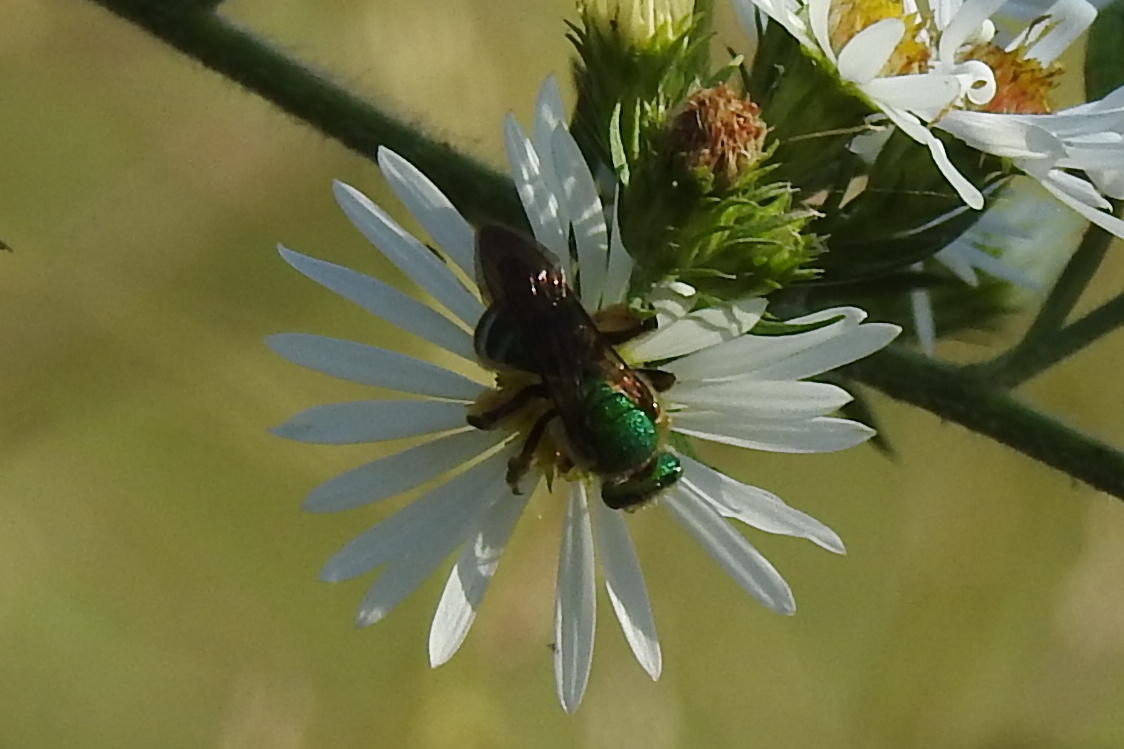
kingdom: Animalia
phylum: Arthropoda
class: Insecta
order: Hymenoptera
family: Halictidae
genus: Agapostemon
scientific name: Agapostemon splendens
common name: Brown-winged striped sweat bee
